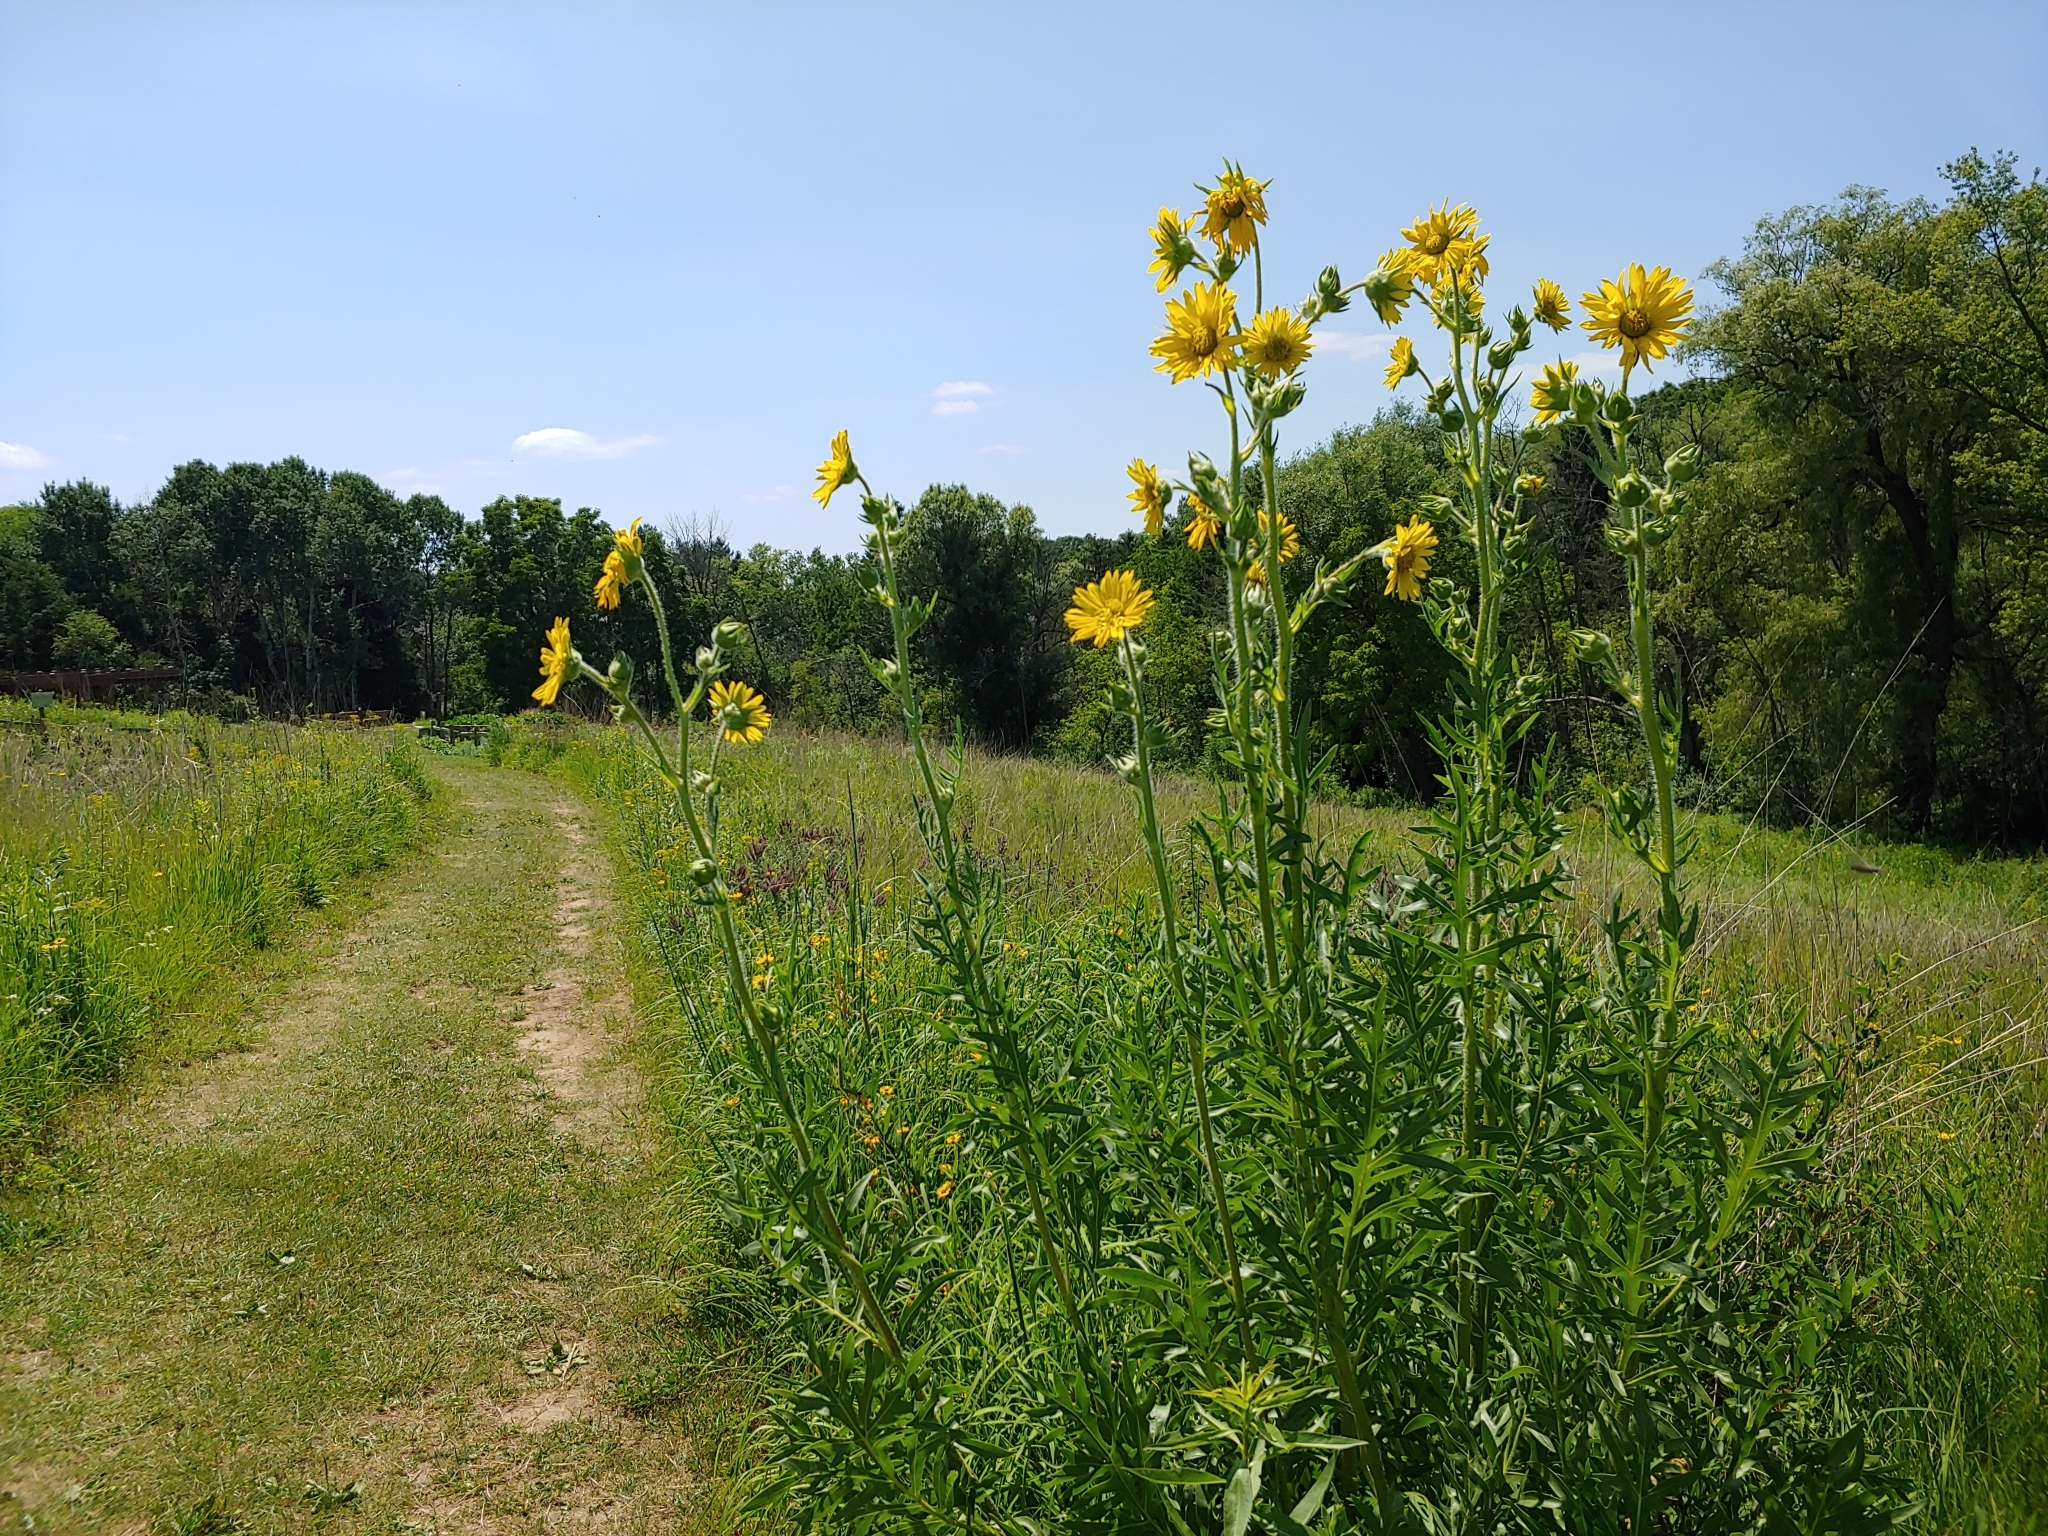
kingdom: Plantae
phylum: Tracheophyta
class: Magnoliopsida
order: Asterales
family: Asteraceae
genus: Silphium
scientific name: Silphium laciniatum
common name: Polarplant
